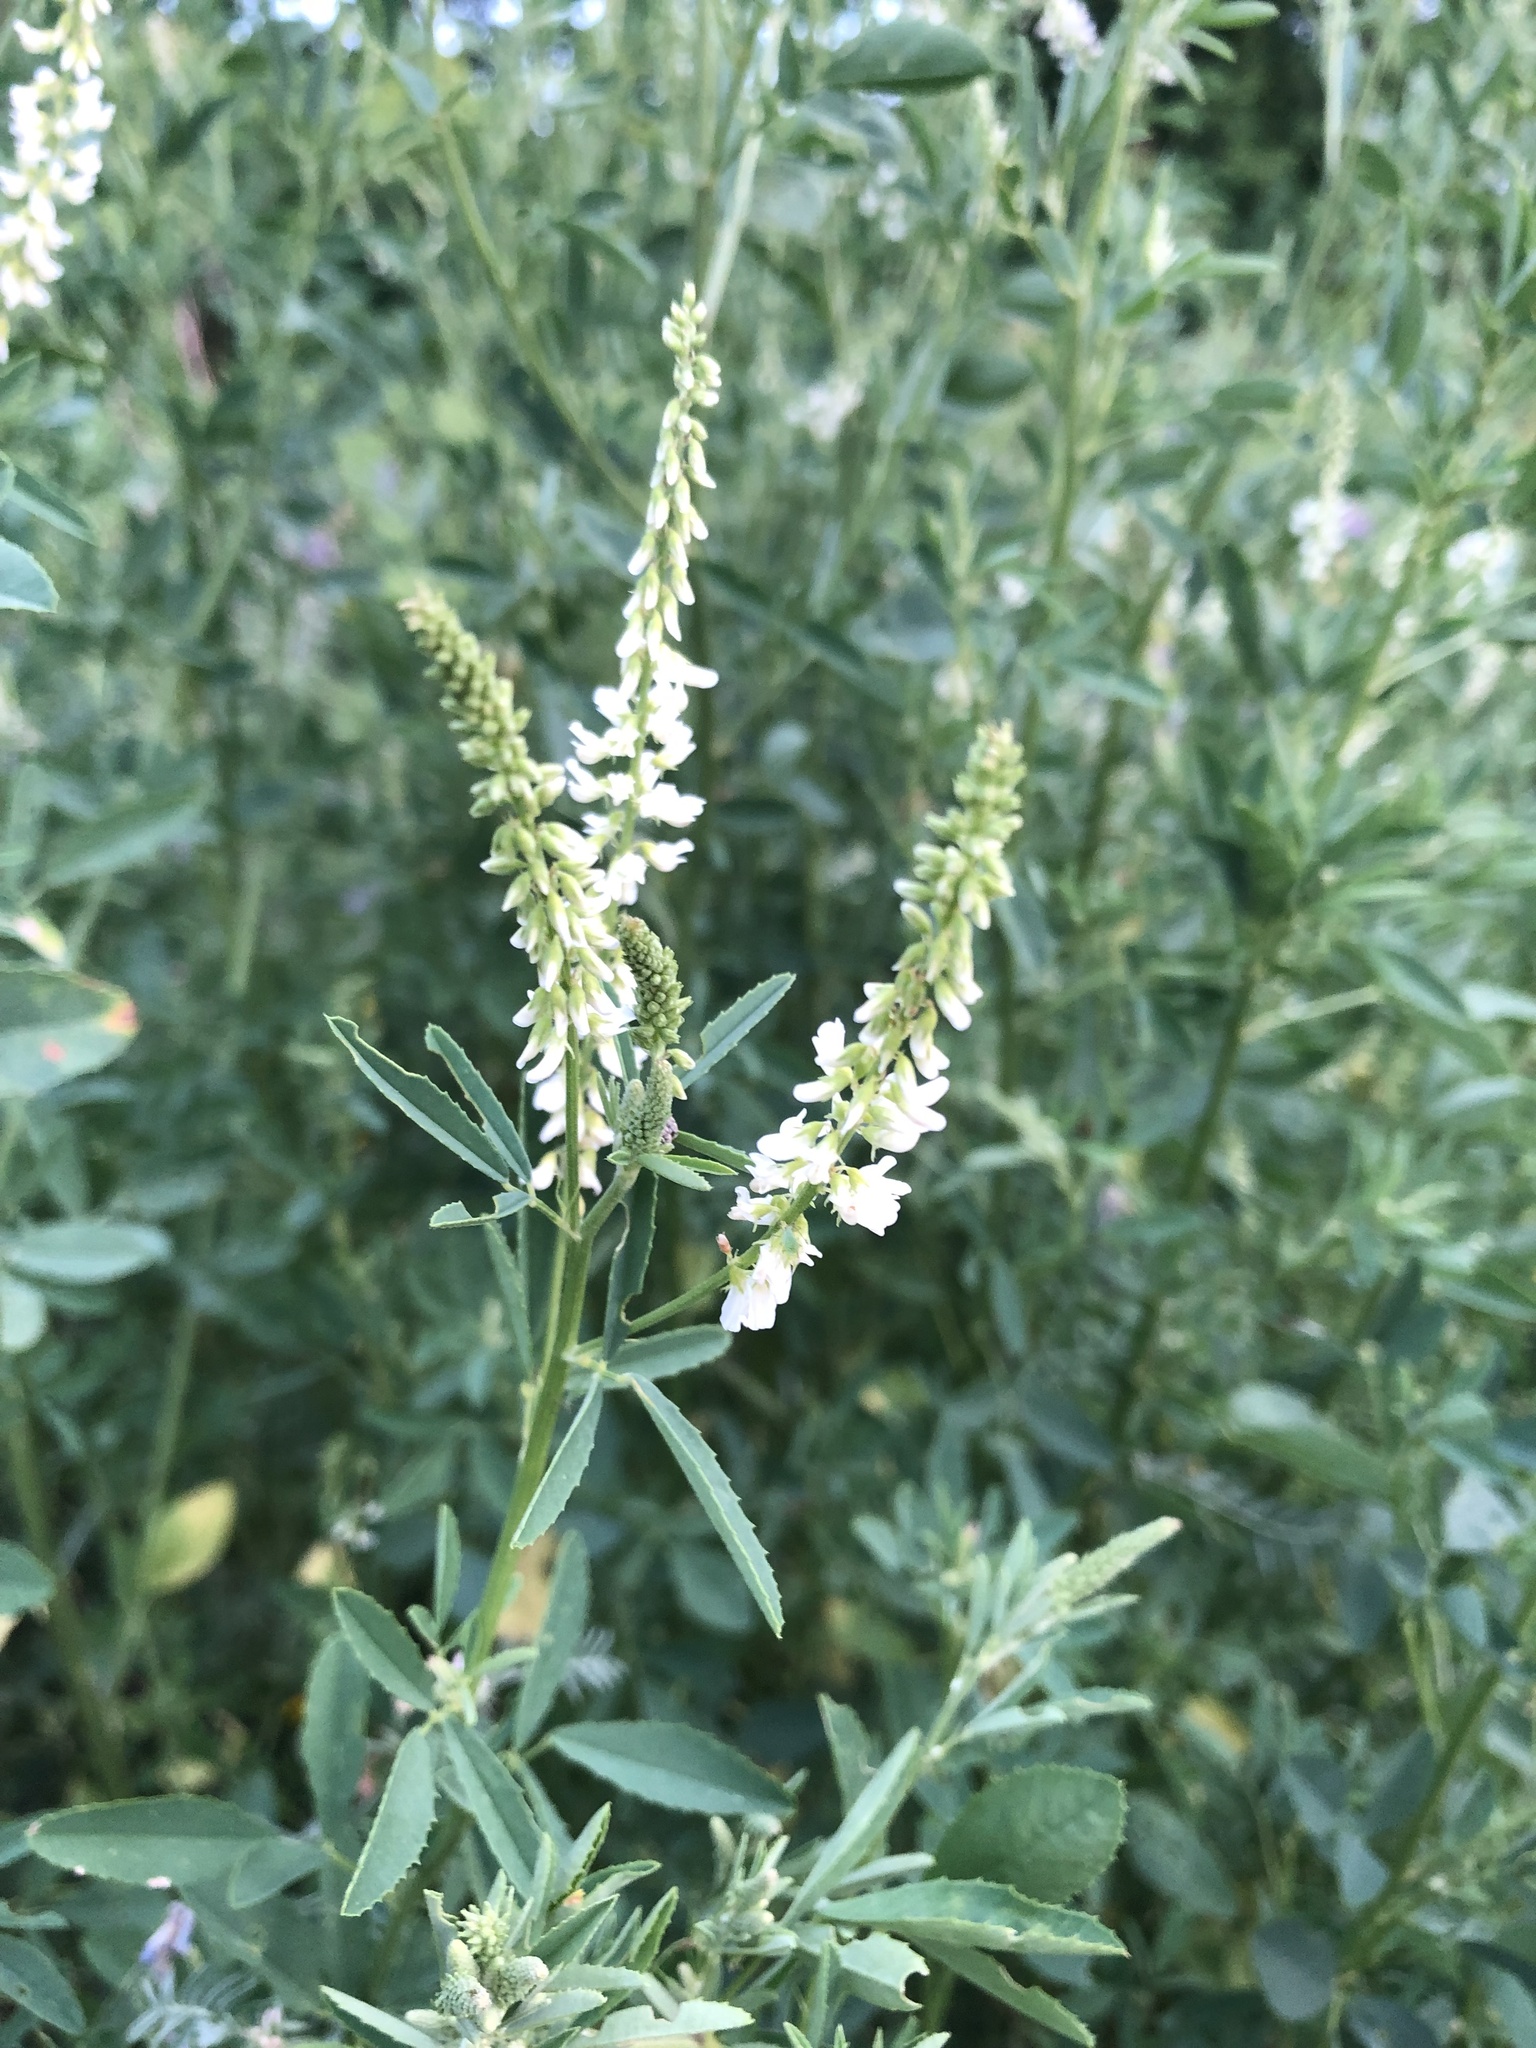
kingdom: Plantae
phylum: Tracheophyta
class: Magnoliopsida
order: Fabales
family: Fabaceae
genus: Melilotus
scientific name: Melilotus albus
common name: White melilot
